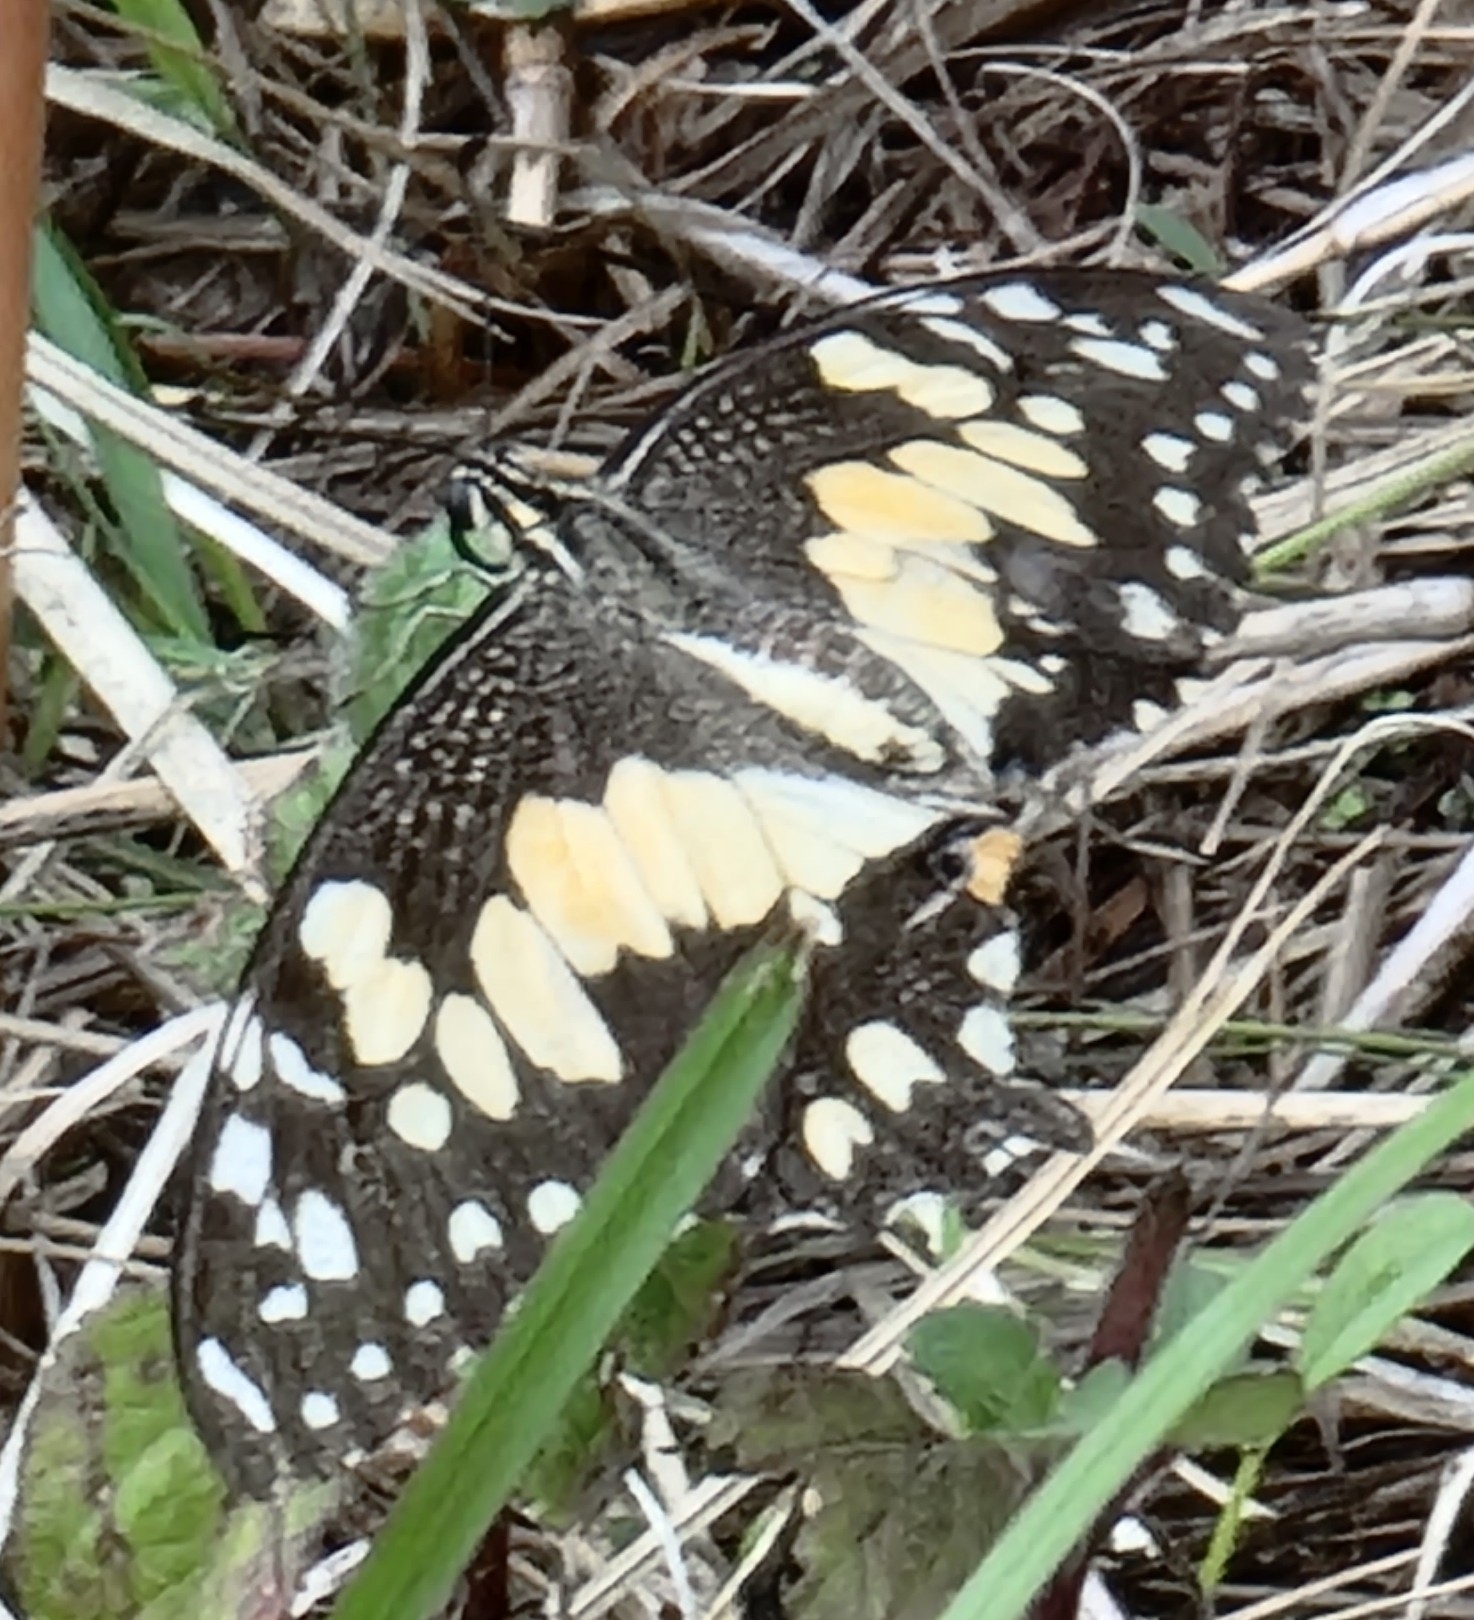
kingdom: Animalia
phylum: Arthropoda
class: Insecta
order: Lepidoptera
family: Papilionidae
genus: Papilio
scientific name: Papilio demoleus
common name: Lime butterfly
